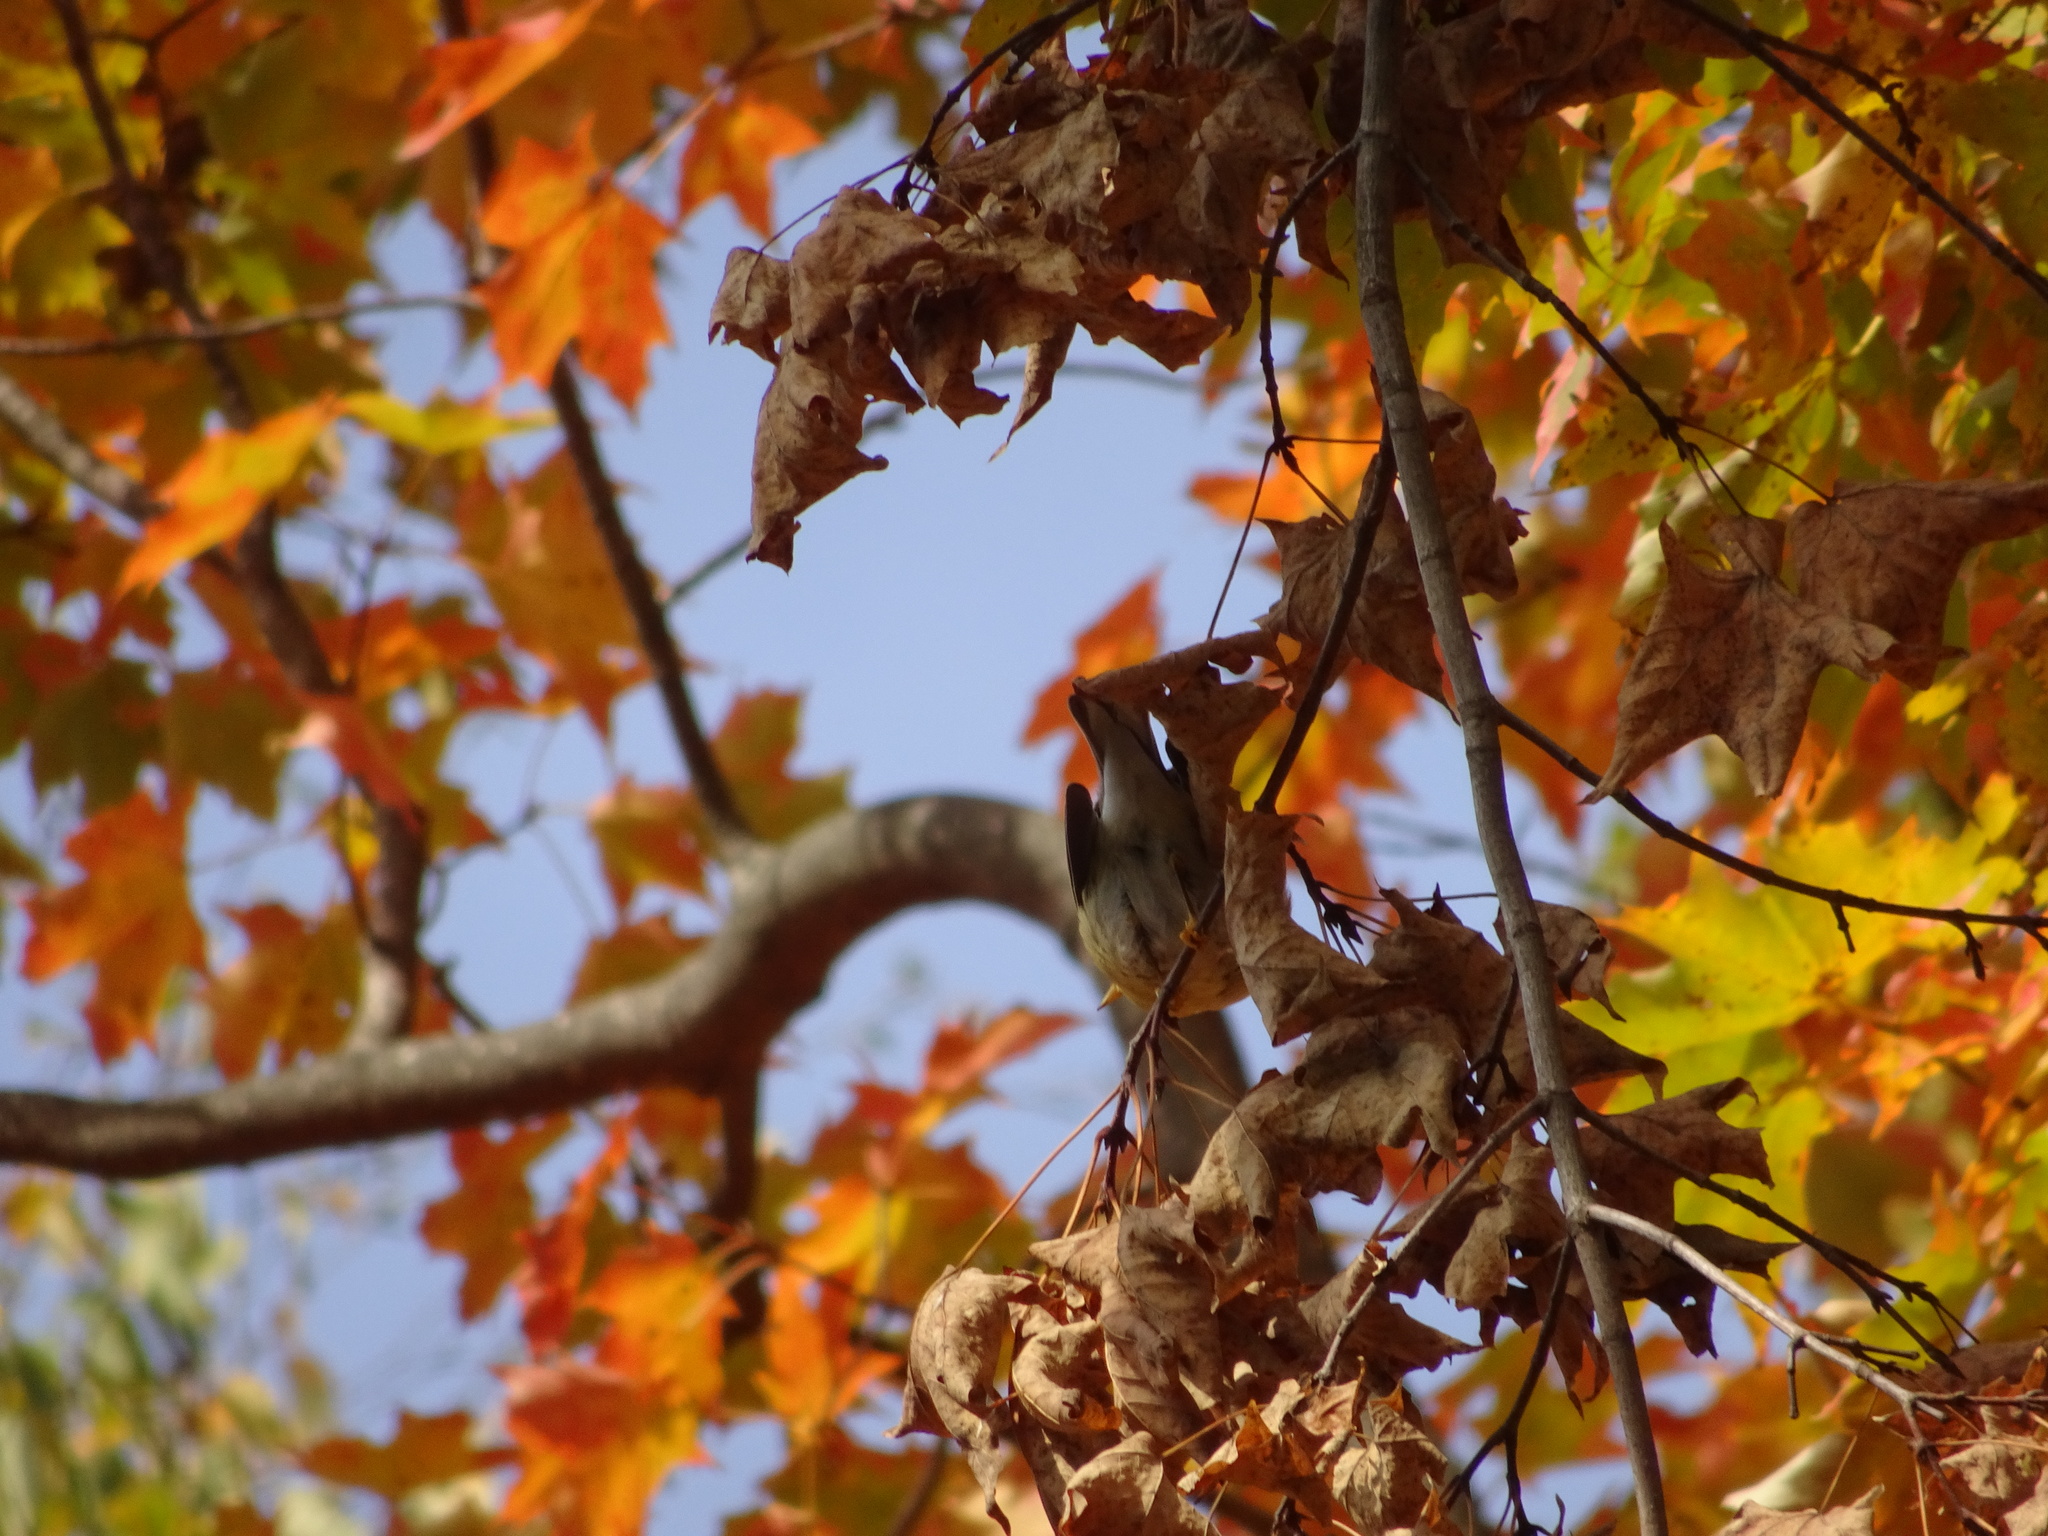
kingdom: Animalia
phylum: Chordata
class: Aves
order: Passeriformes
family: Parulidae
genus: Setophaga
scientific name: Setophaga striata
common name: Blackpoll warbler
